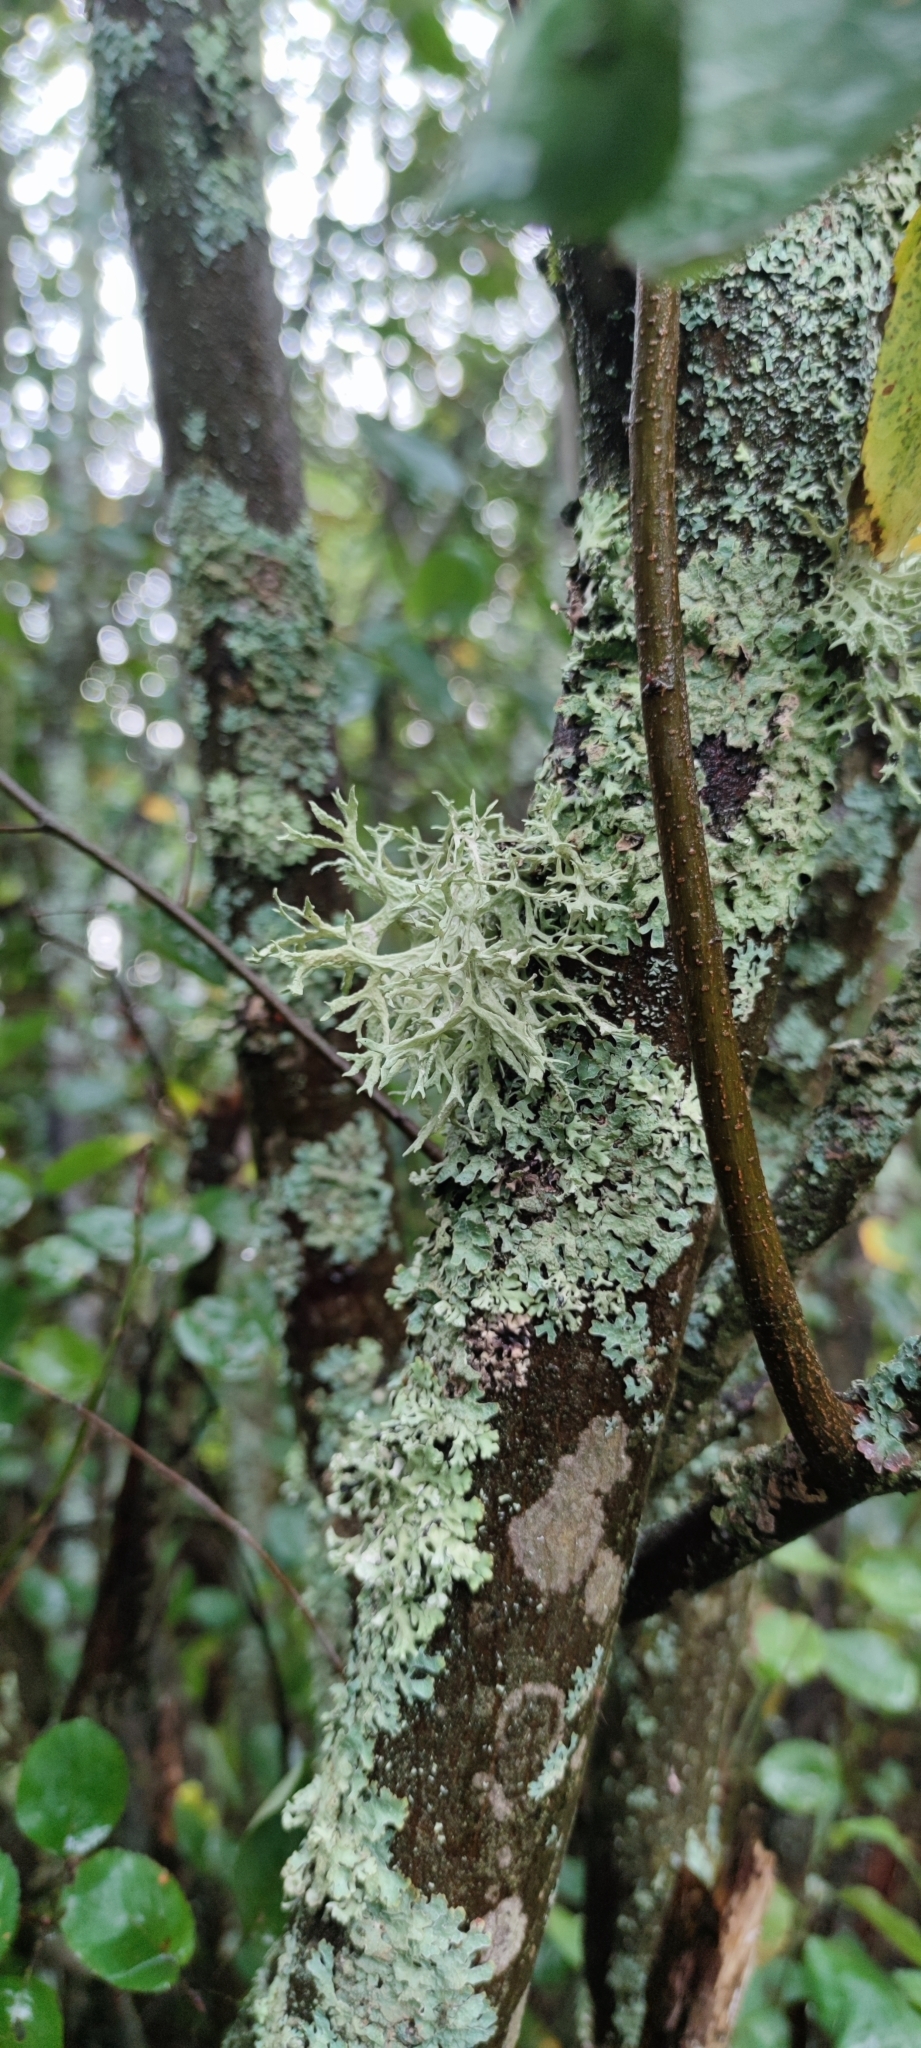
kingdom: Fungi
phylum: Ascomycota
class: Lecanoromycetes
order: Lecanorales
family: Parmeliaceae
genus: Evernia
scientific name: Evernia prunastri
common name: Oak moss
